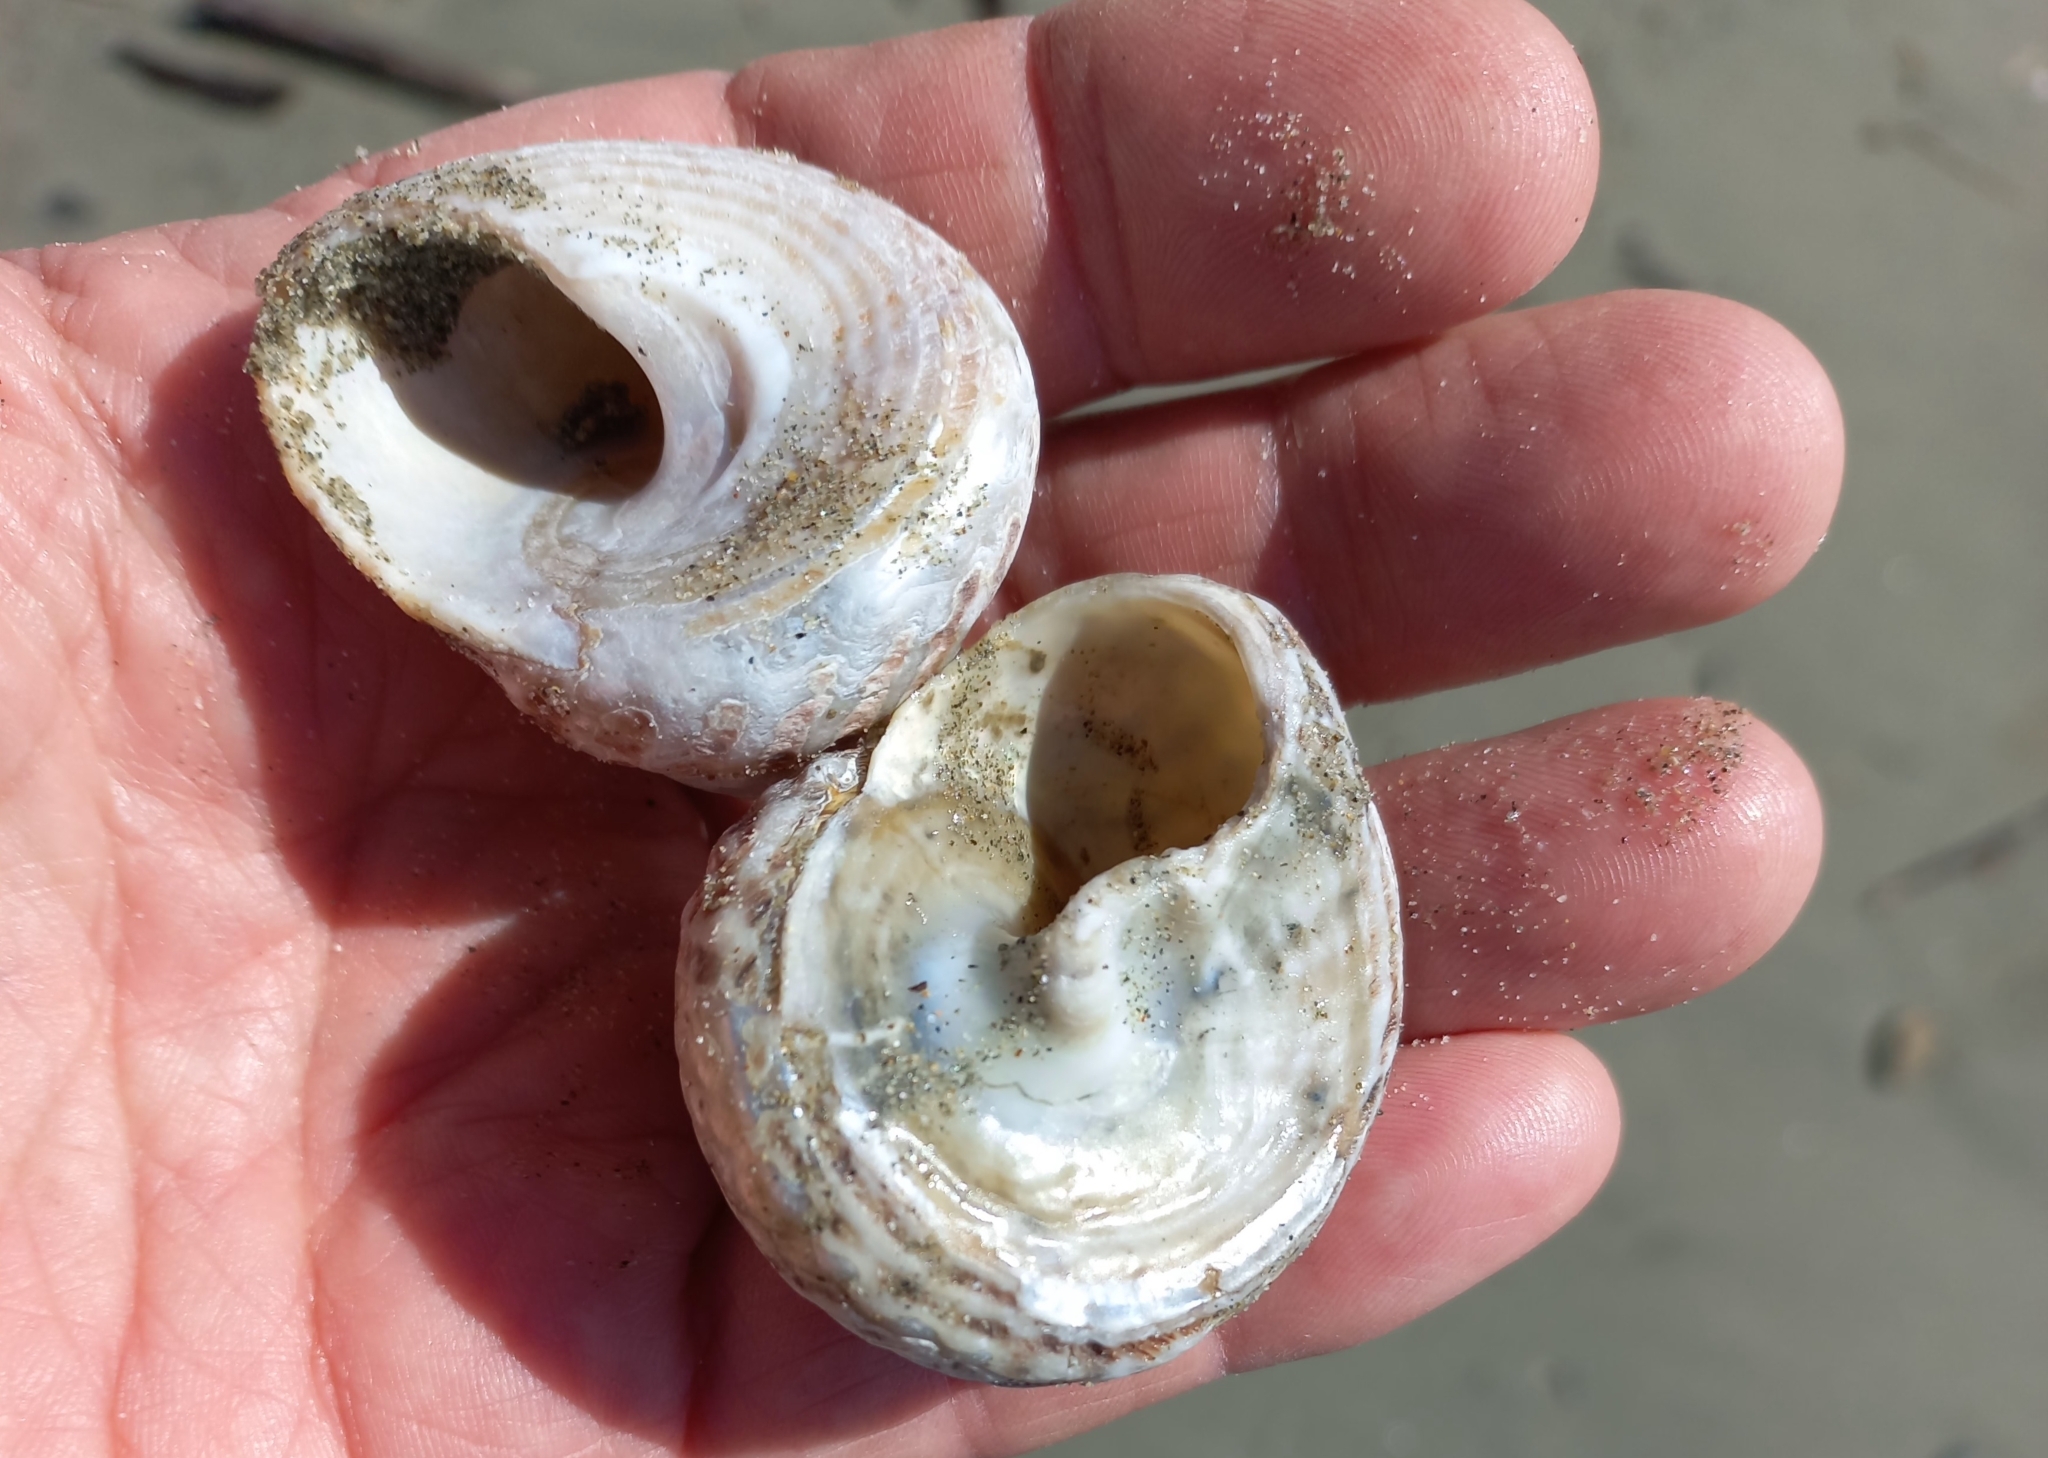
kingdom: Animalia
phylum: Mollusca
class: Gastropoda
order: Trochida
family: Turbinidae
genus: Cookia
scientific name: Cookia sulcata
